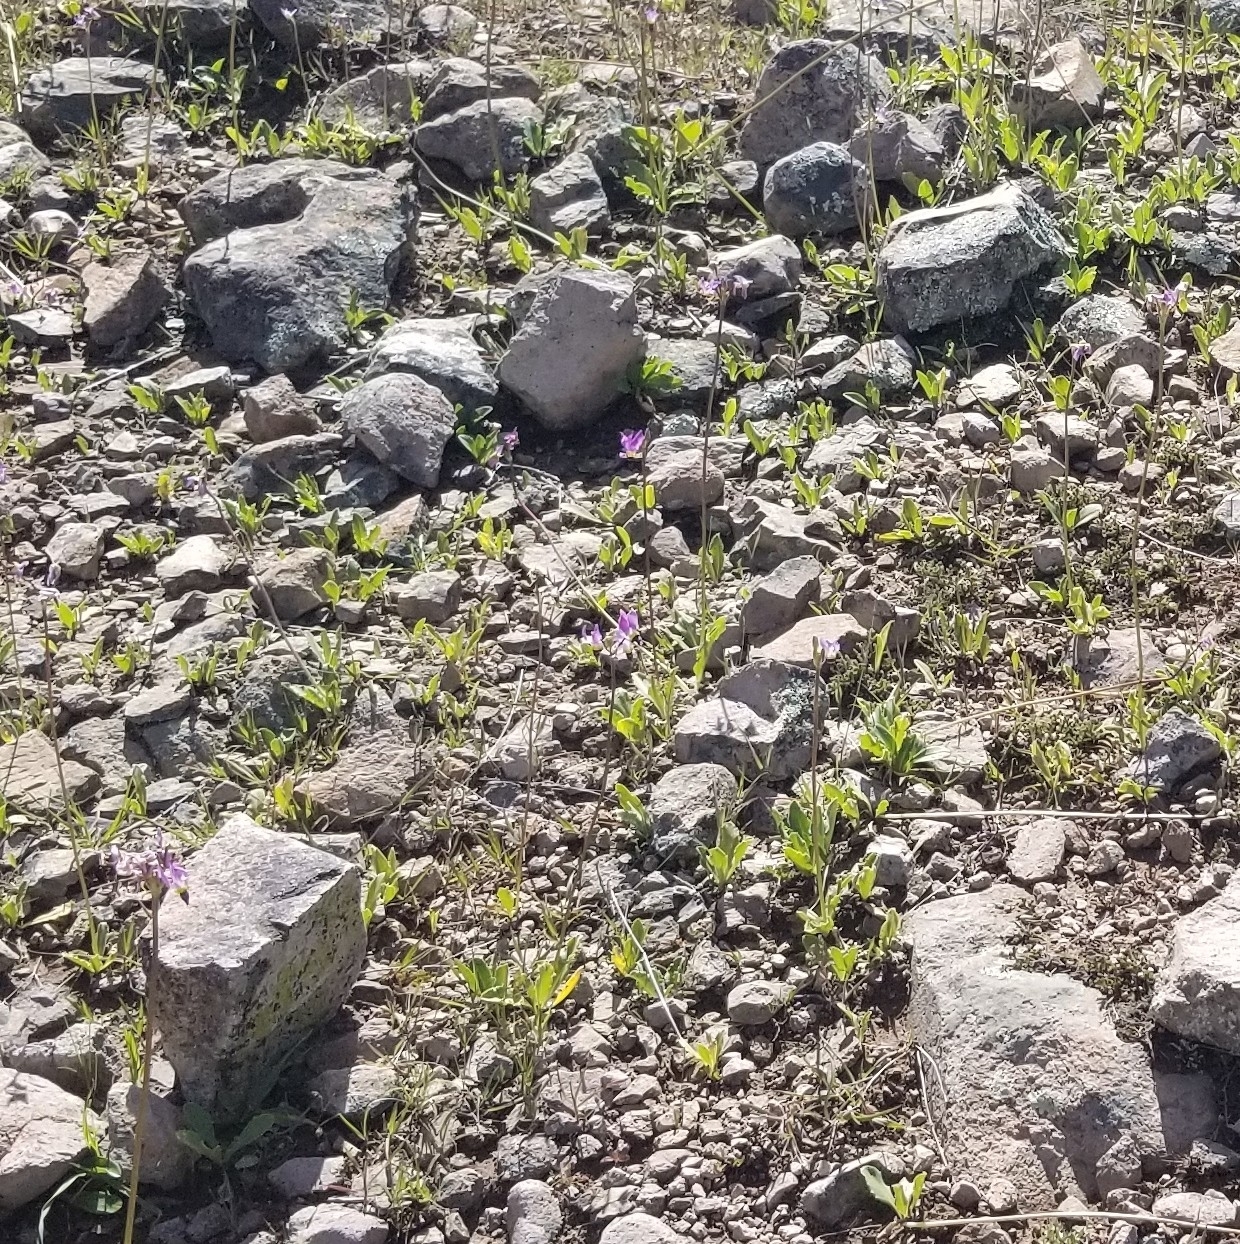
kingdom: Plantae
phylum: Tracheophyta
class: Magnoliopsida
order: Ericales
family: Primulaceae
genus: Dodecatheon
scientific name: Dodecatheon clevelandii
